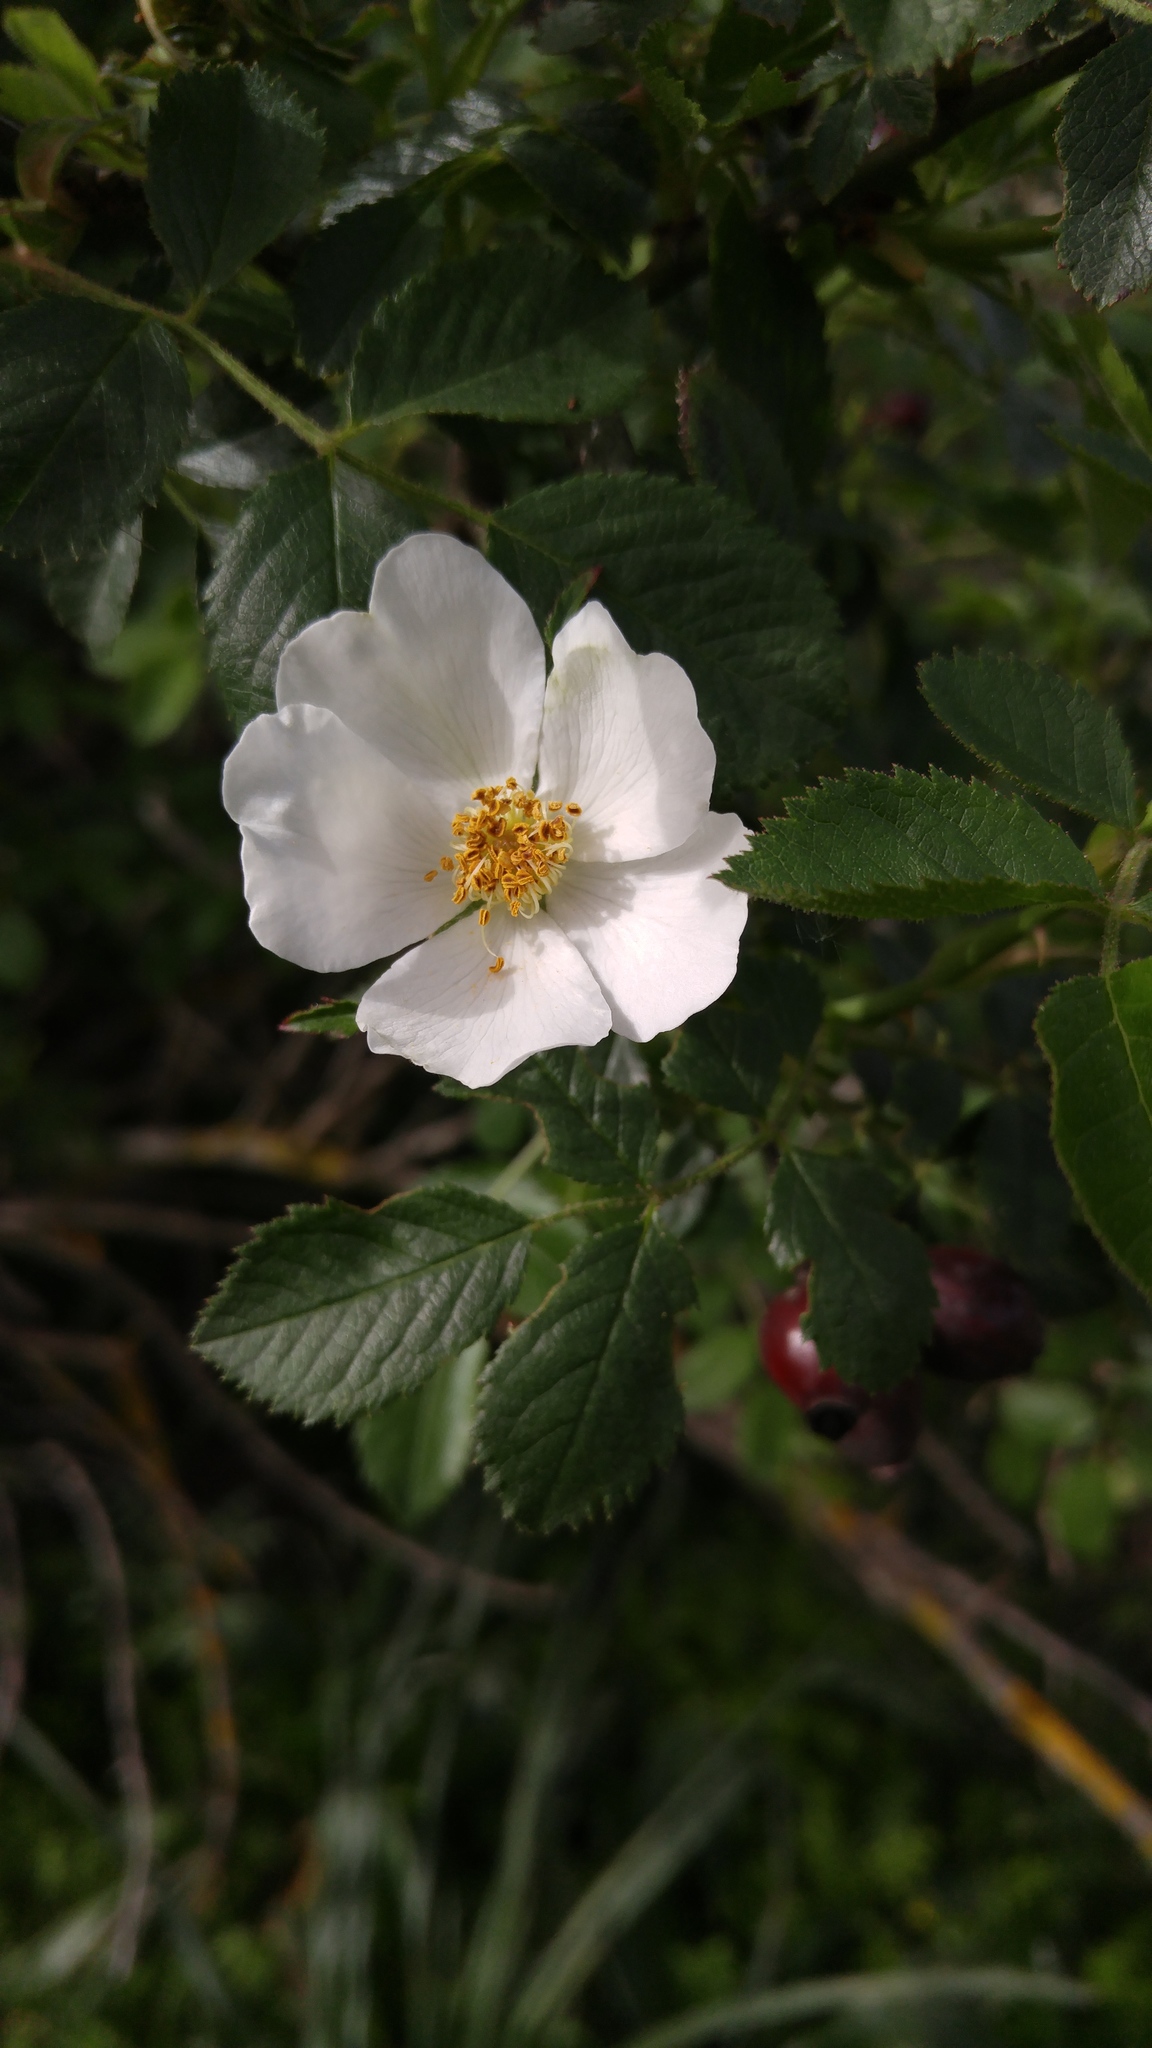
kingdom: Plantae
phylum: Tracheophyta
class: Magnoliopsida
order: Rosales
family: Rosaceae
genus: Rosa
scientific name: Rosa corymbifera
